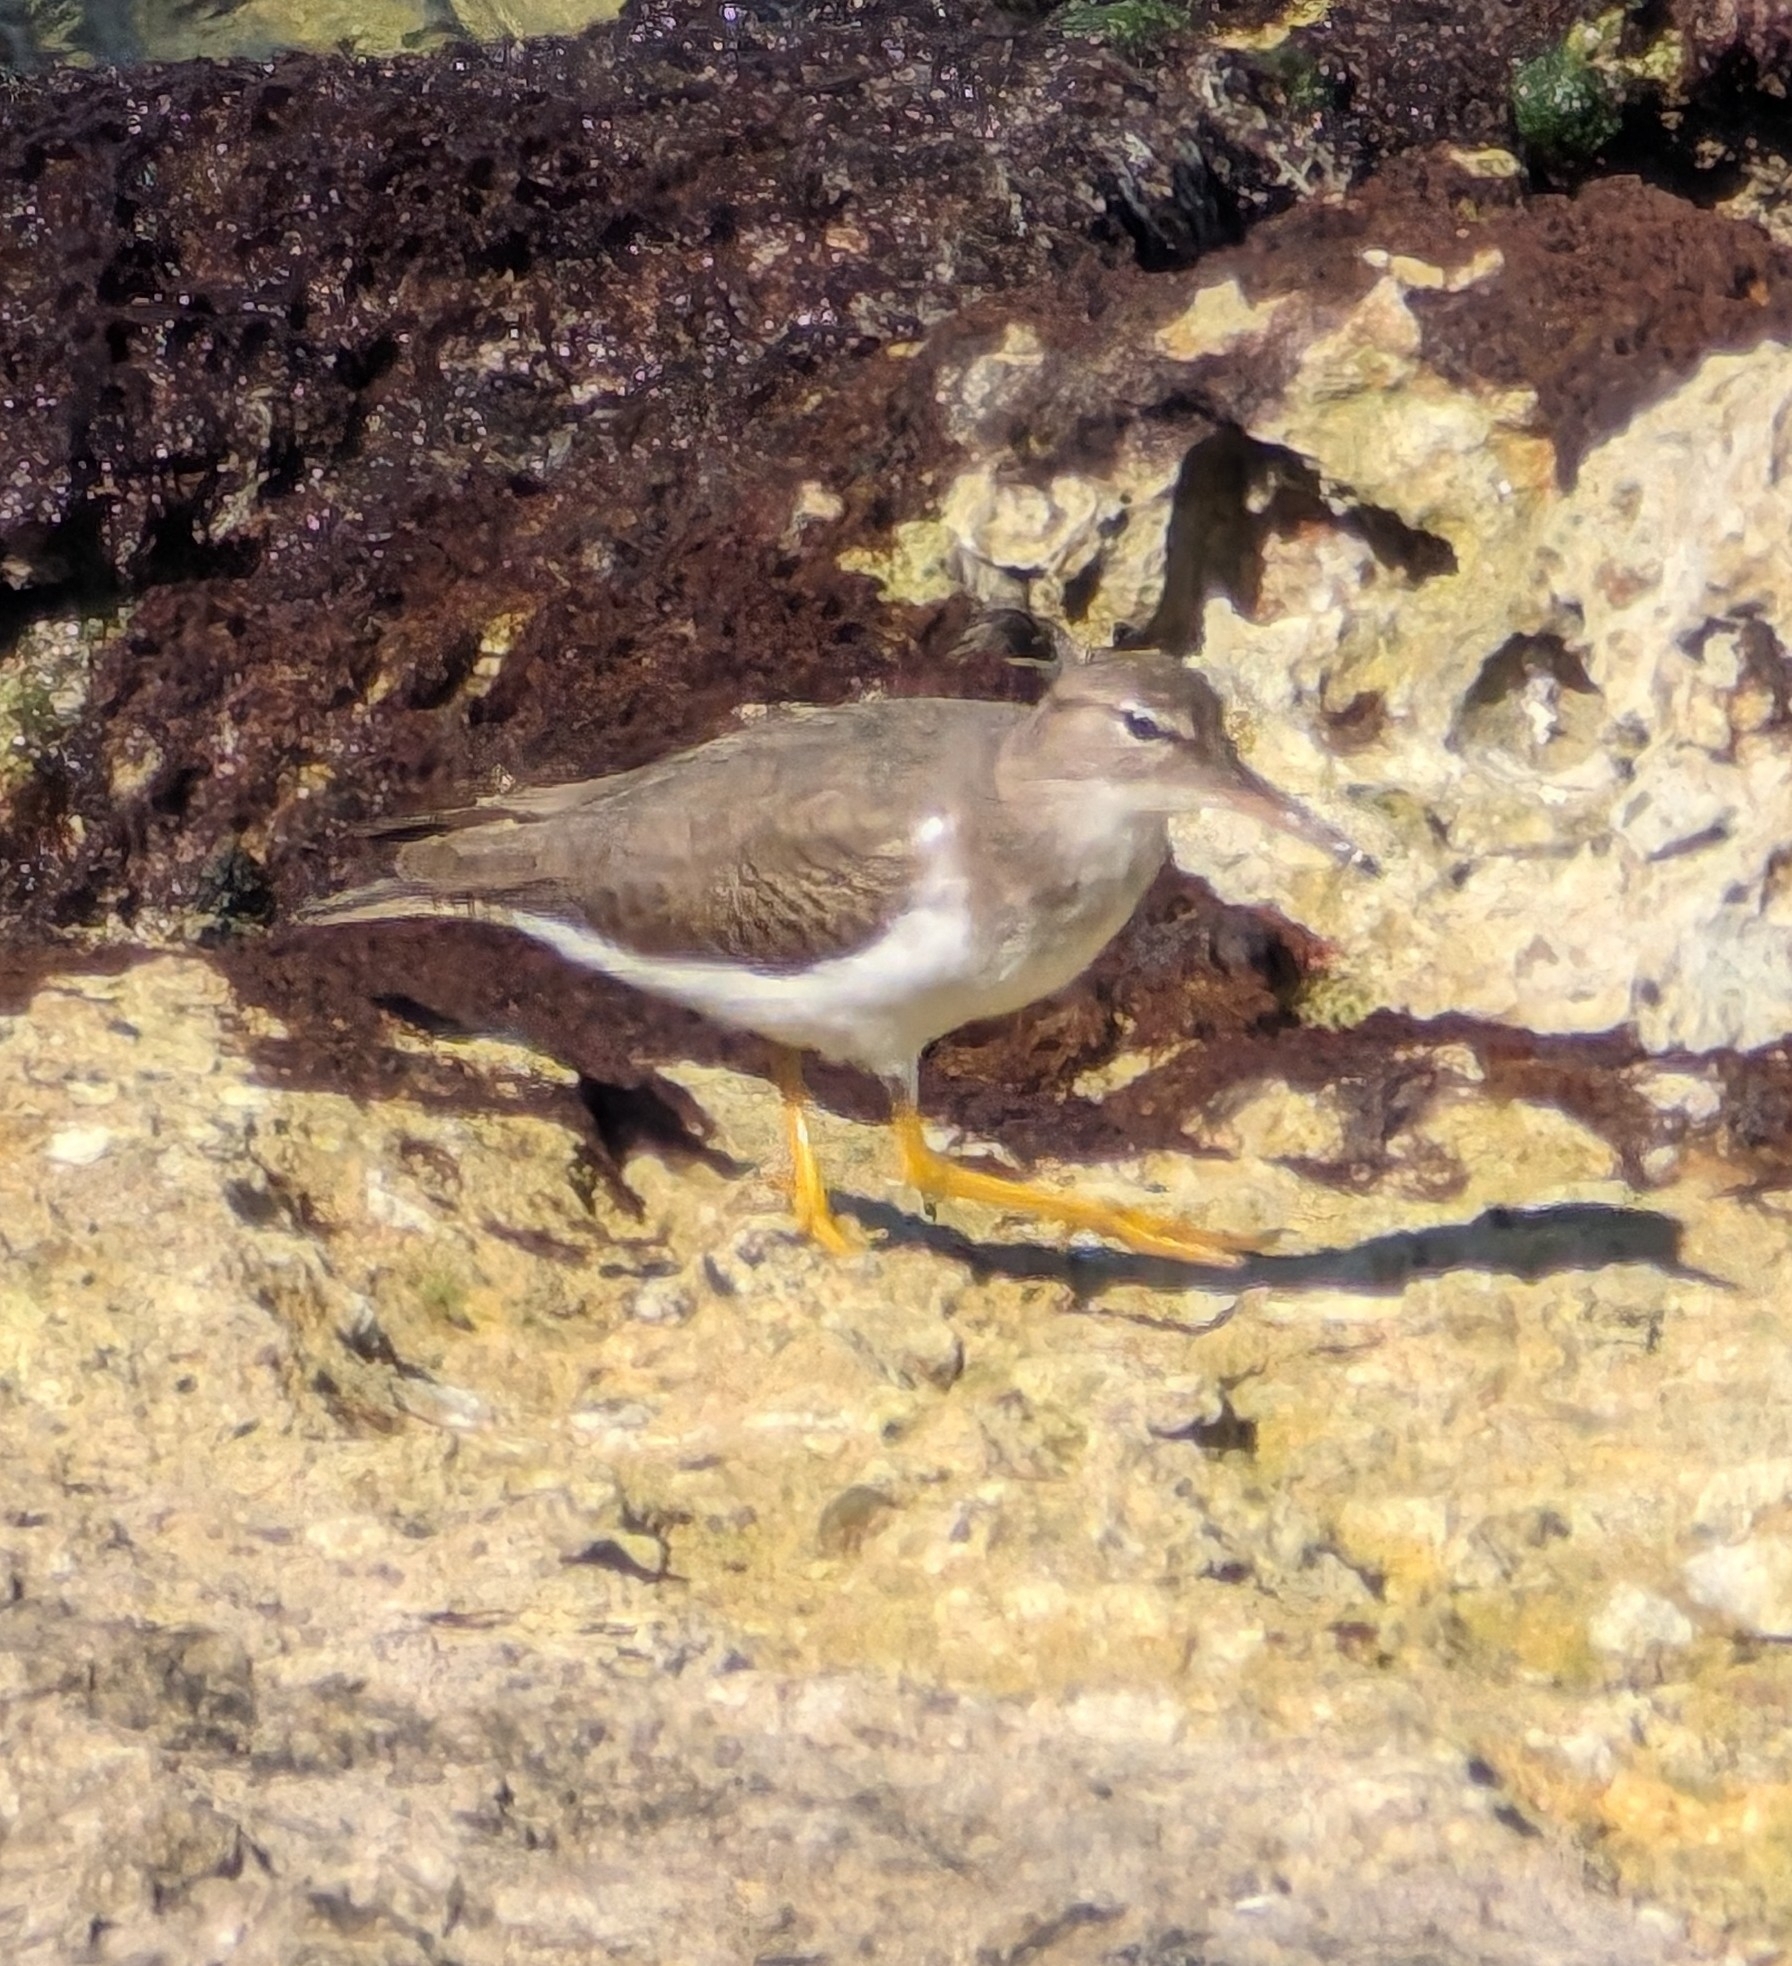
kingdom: Animalia
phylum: Chordata
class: Aves
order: Charadriiformes
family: Scolopacidae
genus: Actitis
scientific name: Actitis macularius
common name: Spotted sandpiper
